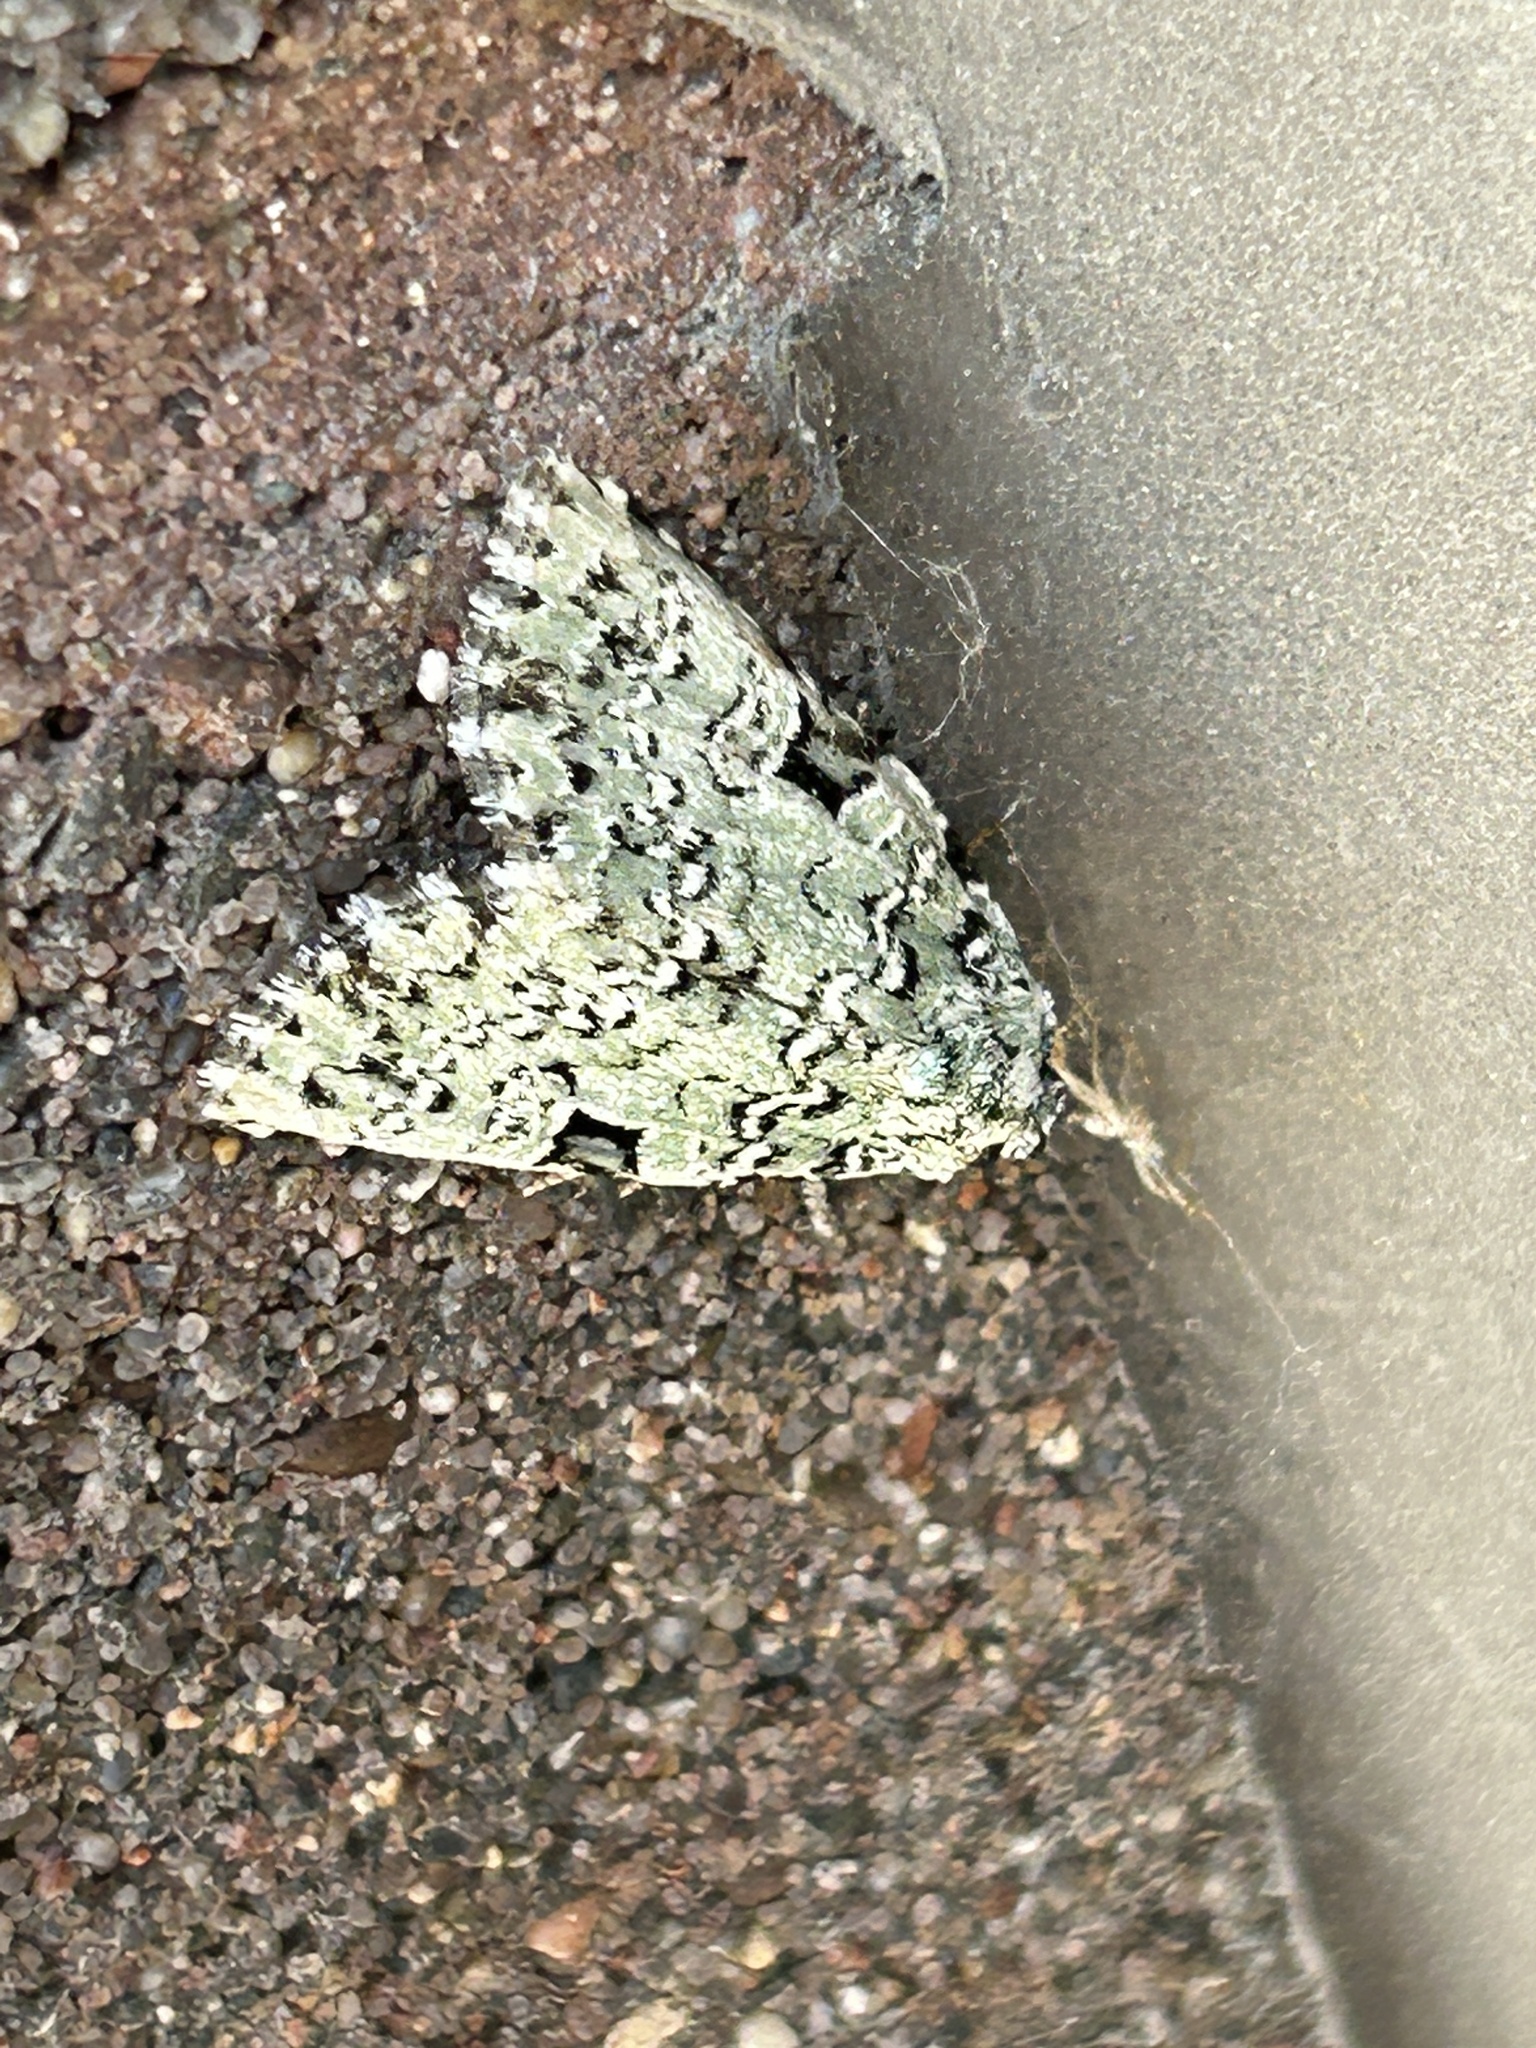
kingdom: Animalia
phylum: Arthropoda
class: Insecta
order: Lepidoptera
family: Noctuidae
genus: Leuconycta
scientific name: Leuconycta diphteroides
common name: Green leuconycta moth
